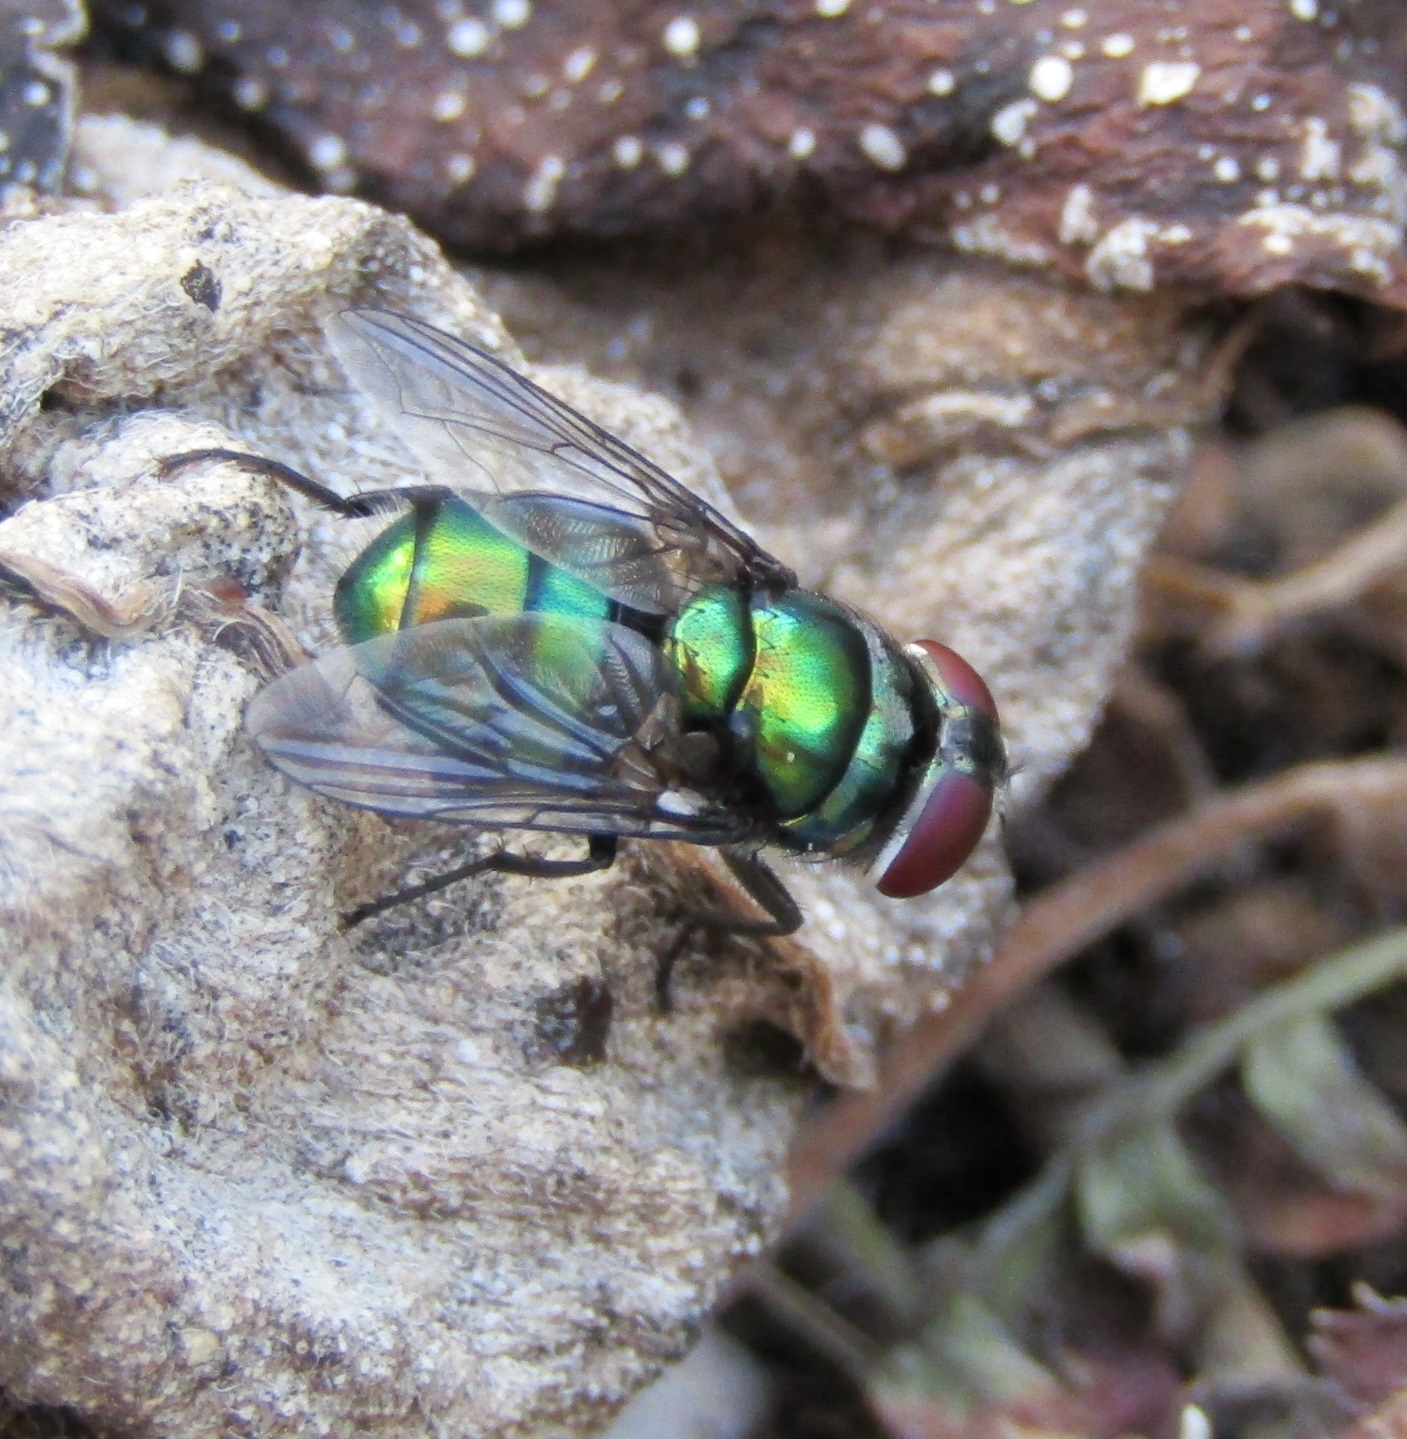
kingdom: Animalia
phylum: Arthropoda
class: Insecta
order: Diptera
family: Calliphoridae
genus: Chrysomya
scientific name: Chrysomya rufifacies
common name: Blow fly
